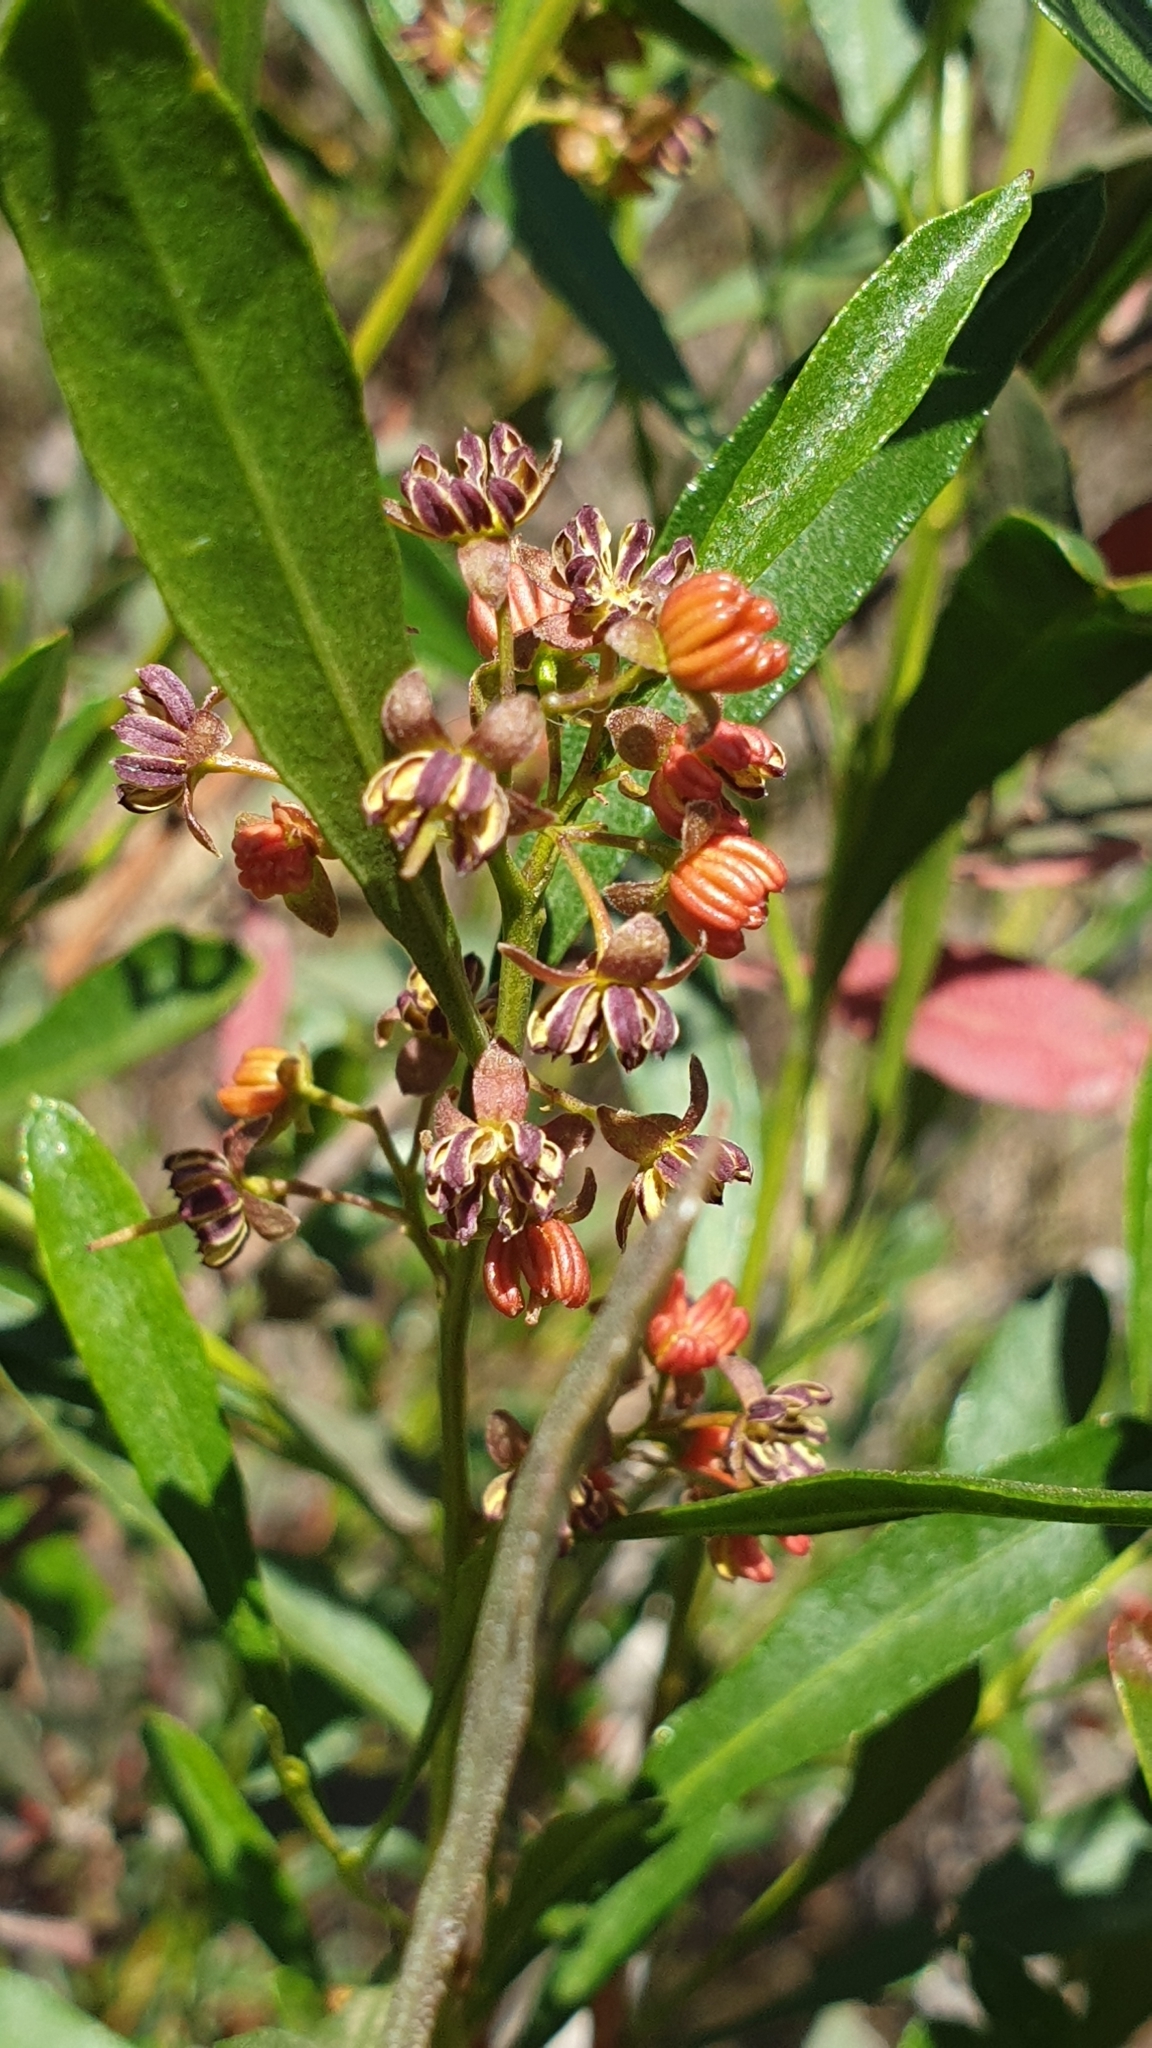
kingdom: Plantae
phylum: Tracheophyta
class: Magnoliopsida
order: Sapindales
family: Sapindaceae
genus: Dodonaea
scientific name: Dodonaea viscosa
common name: Hopbush
